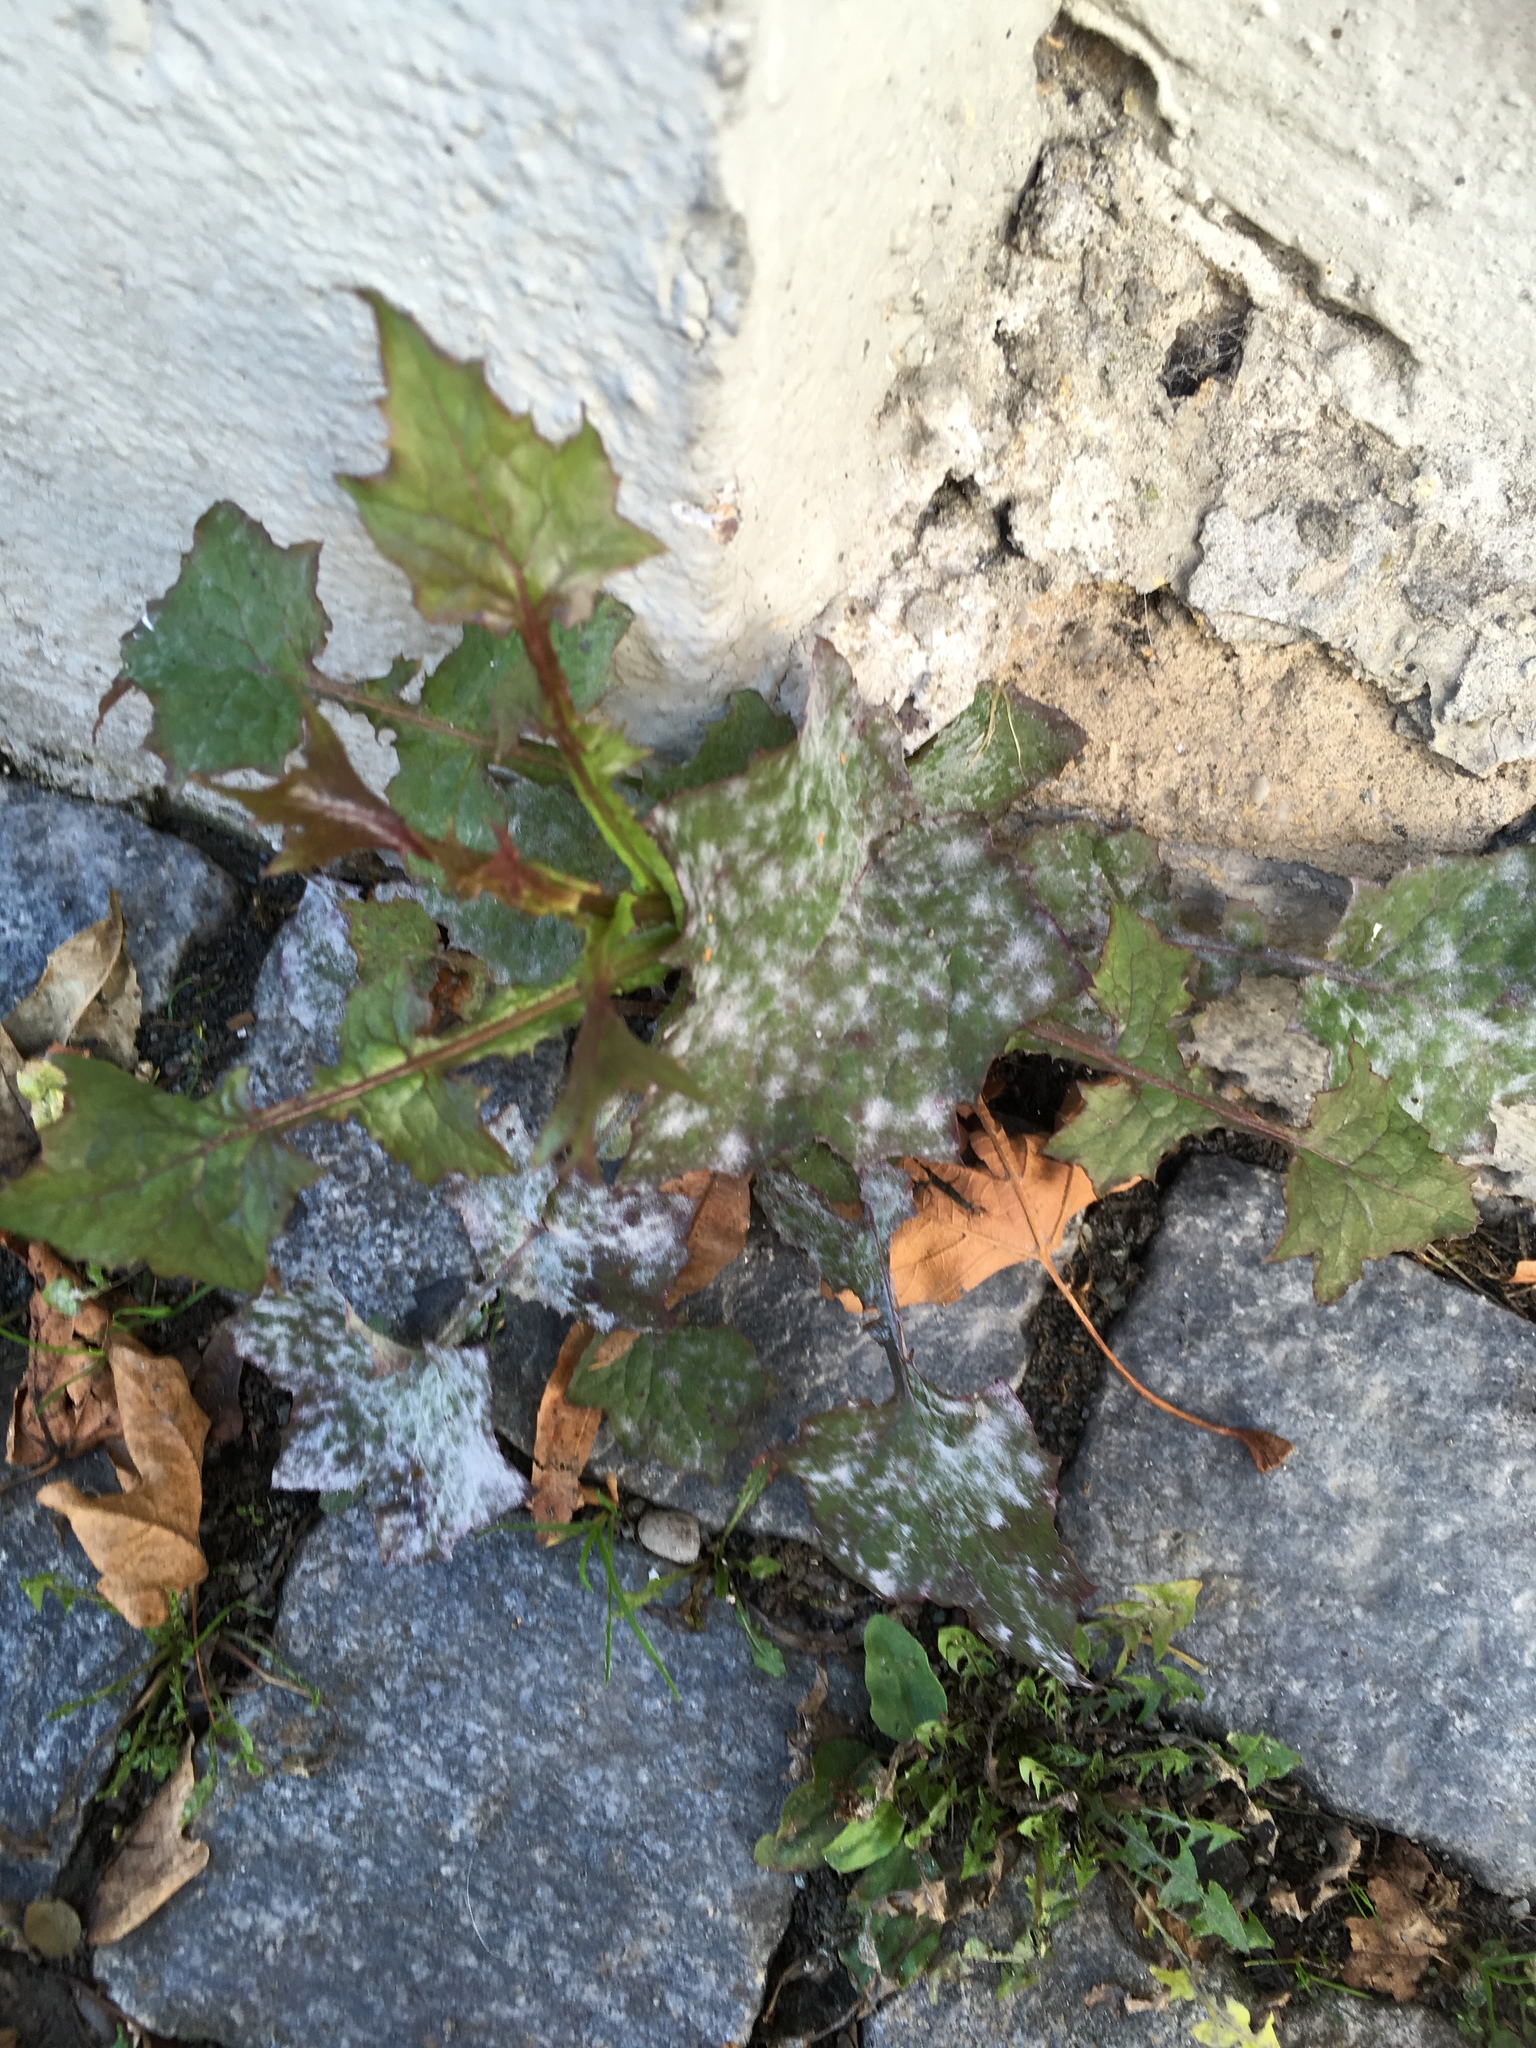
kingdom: Plantae
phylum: Tracheophyta
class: Magnoliopsida
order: Asterales
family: Asteraceae
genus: Mycelis
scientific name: Mycelis muralis
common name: Wall lettuce
